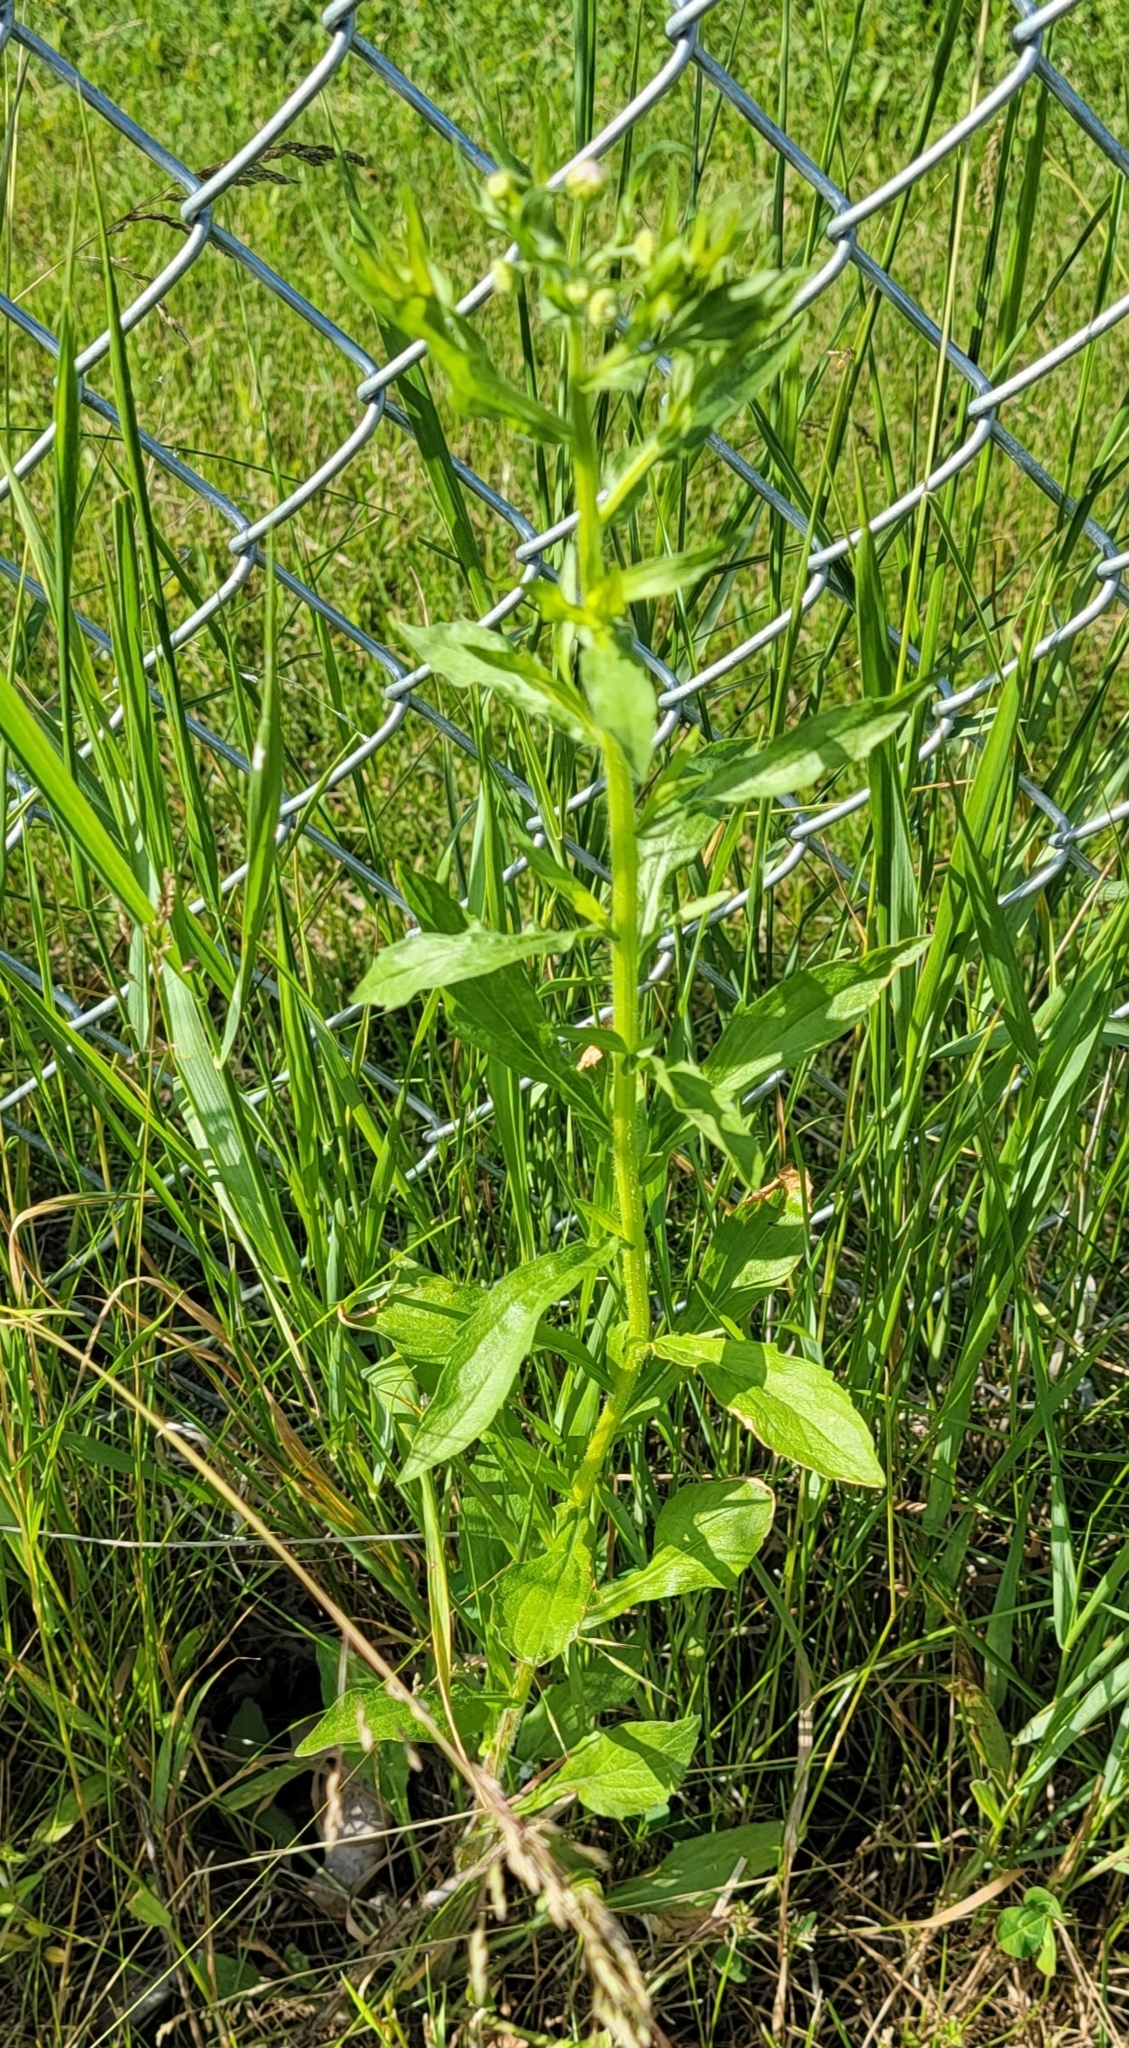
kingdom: Plantae
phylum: Tracheophyta
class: Magnoliopsida
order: Asterales
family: Asteraceae
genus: Erigeron
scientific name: Erigeron annuus
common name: Tall fleabane
